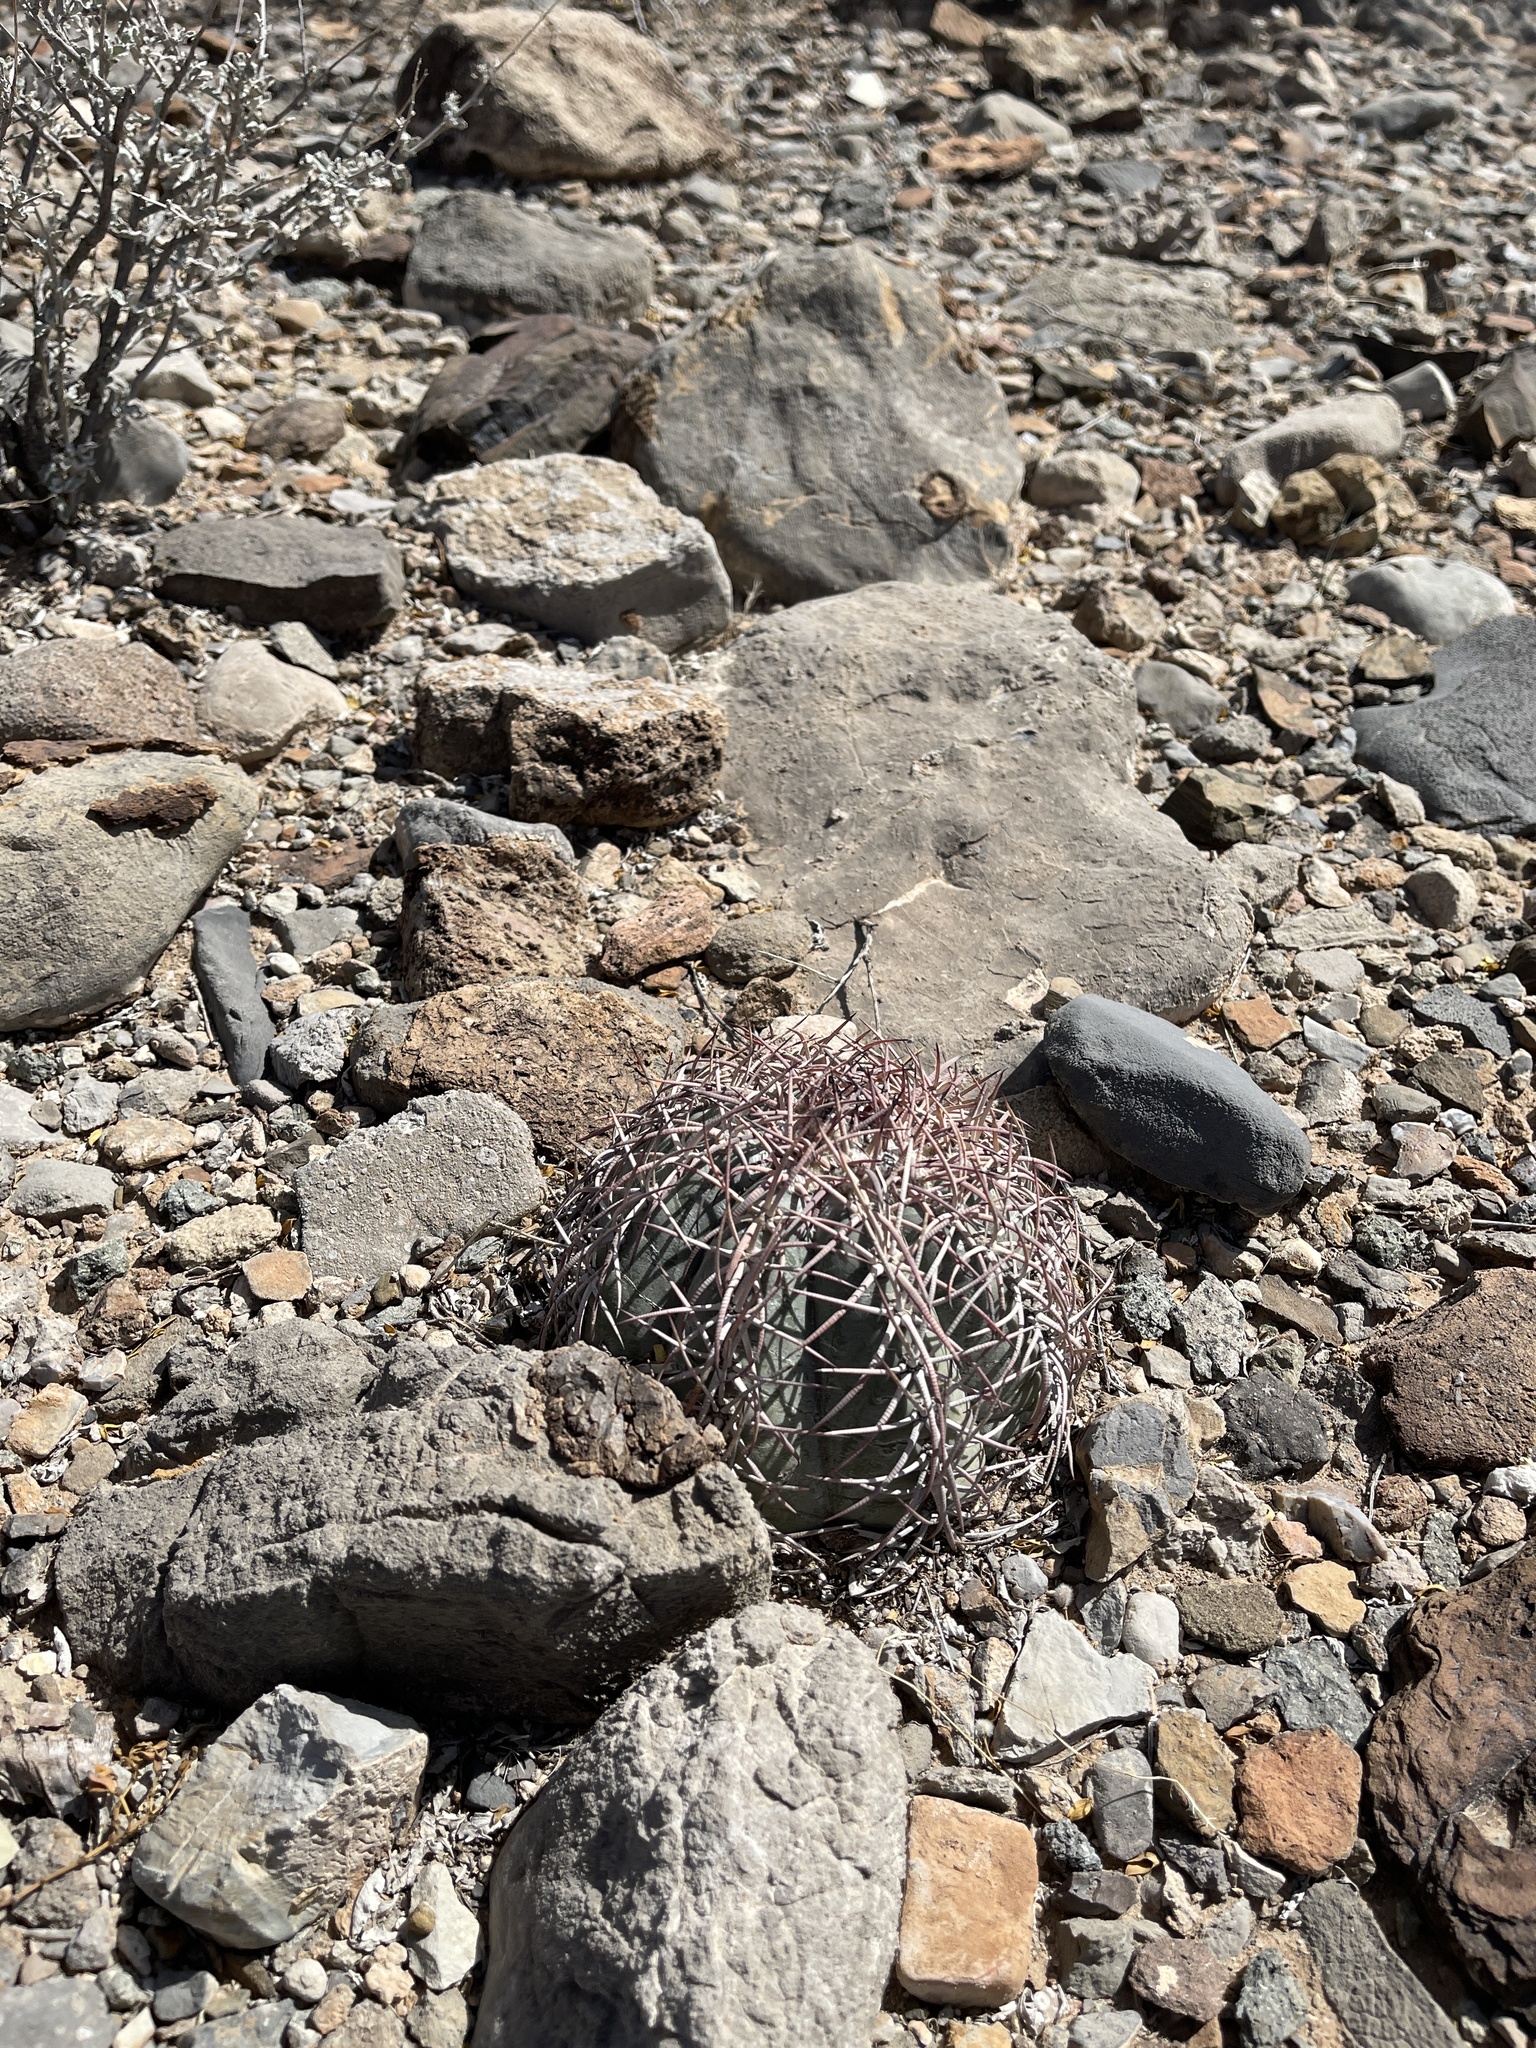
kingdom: Plantae
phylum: Tracheophyta
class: Magnoliopsida
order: Caryophyllales
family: Cactaceae
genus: Echinocactus
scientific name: Echinocactus horizonthalonius
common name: Devilshead
